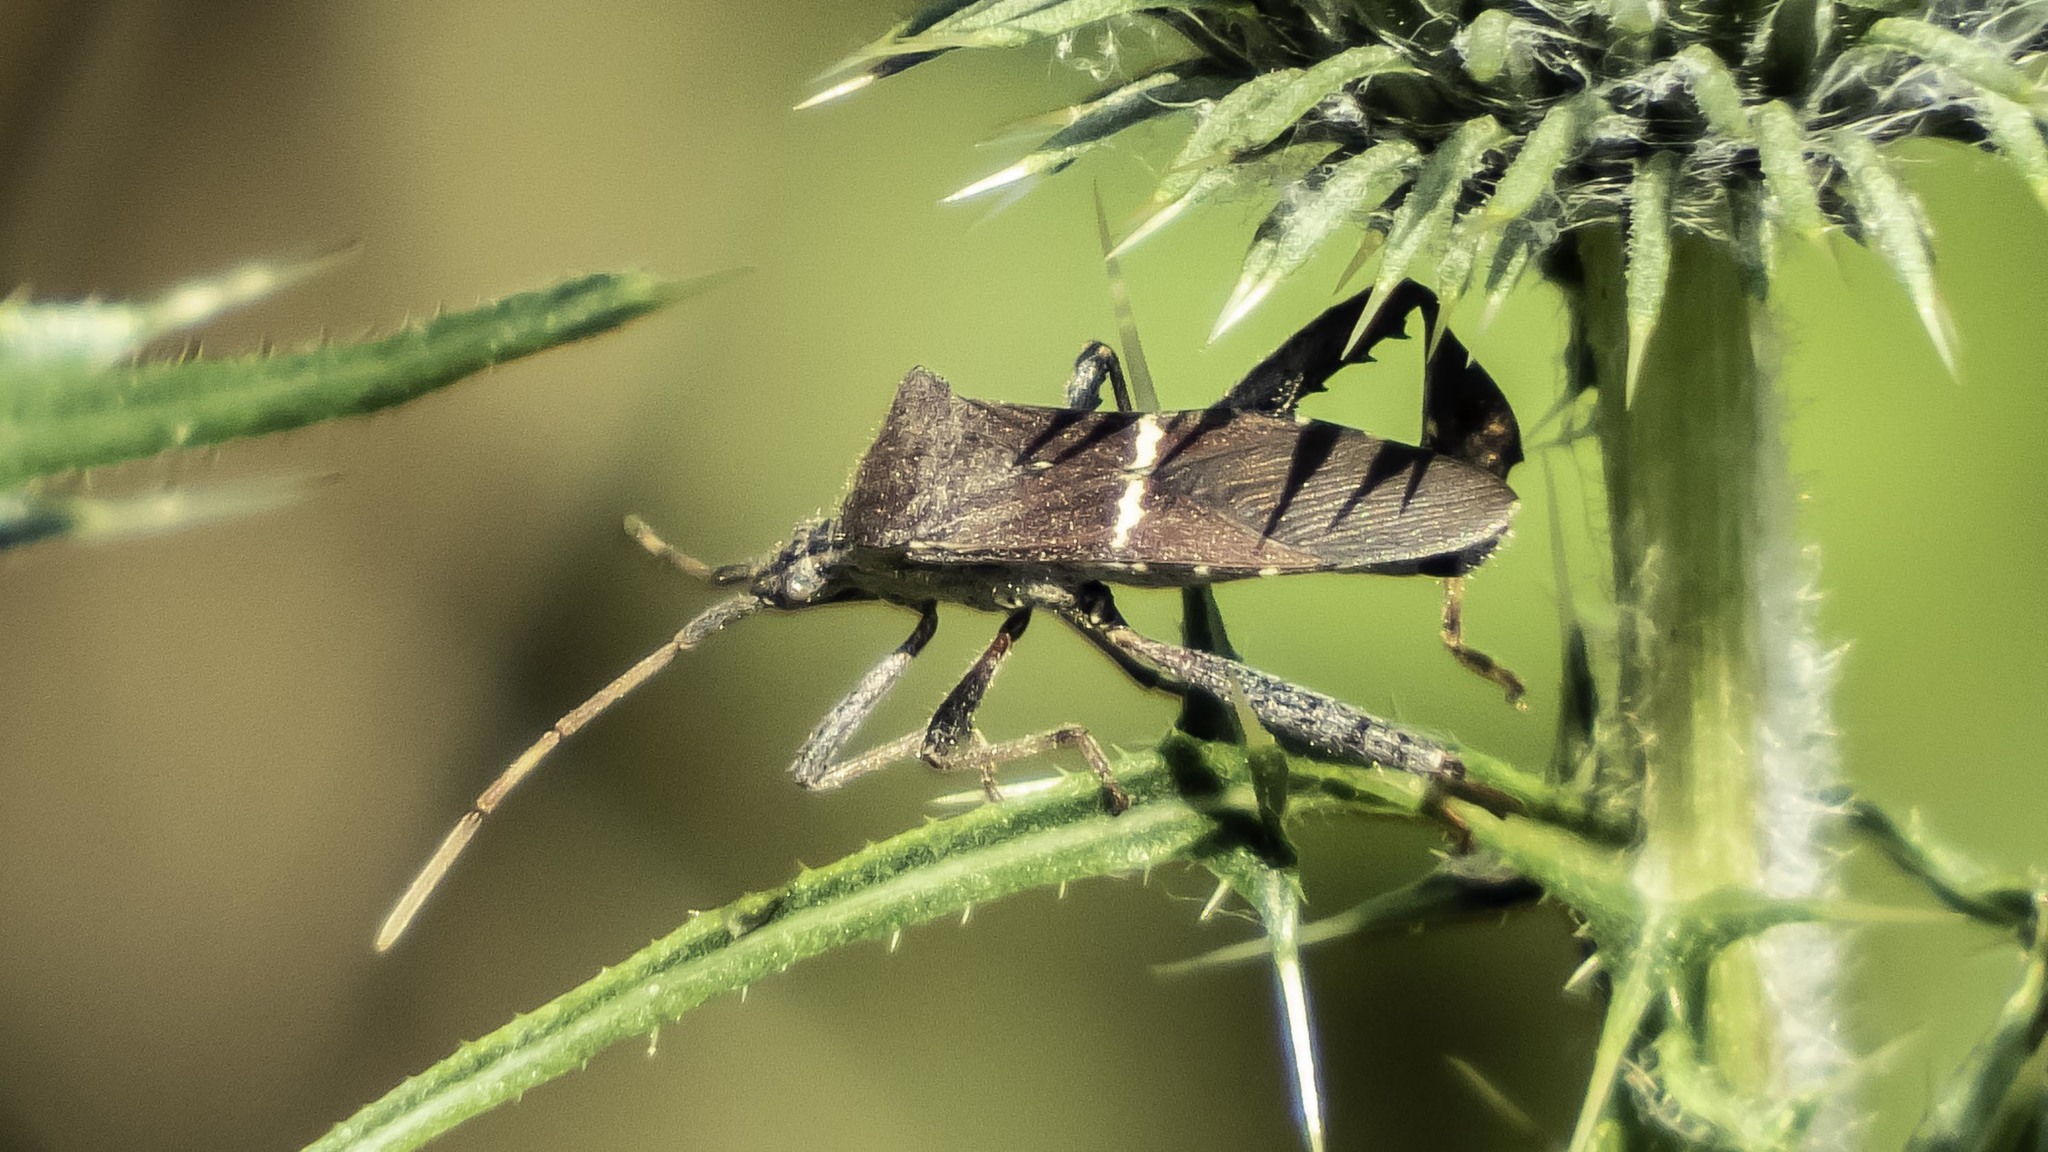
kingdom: Animalia
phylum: Arthropoda
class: Insecta
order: Hemiptera
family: Coreidae
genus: Leptoglossus
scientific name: Leptoglossus phyllopus
